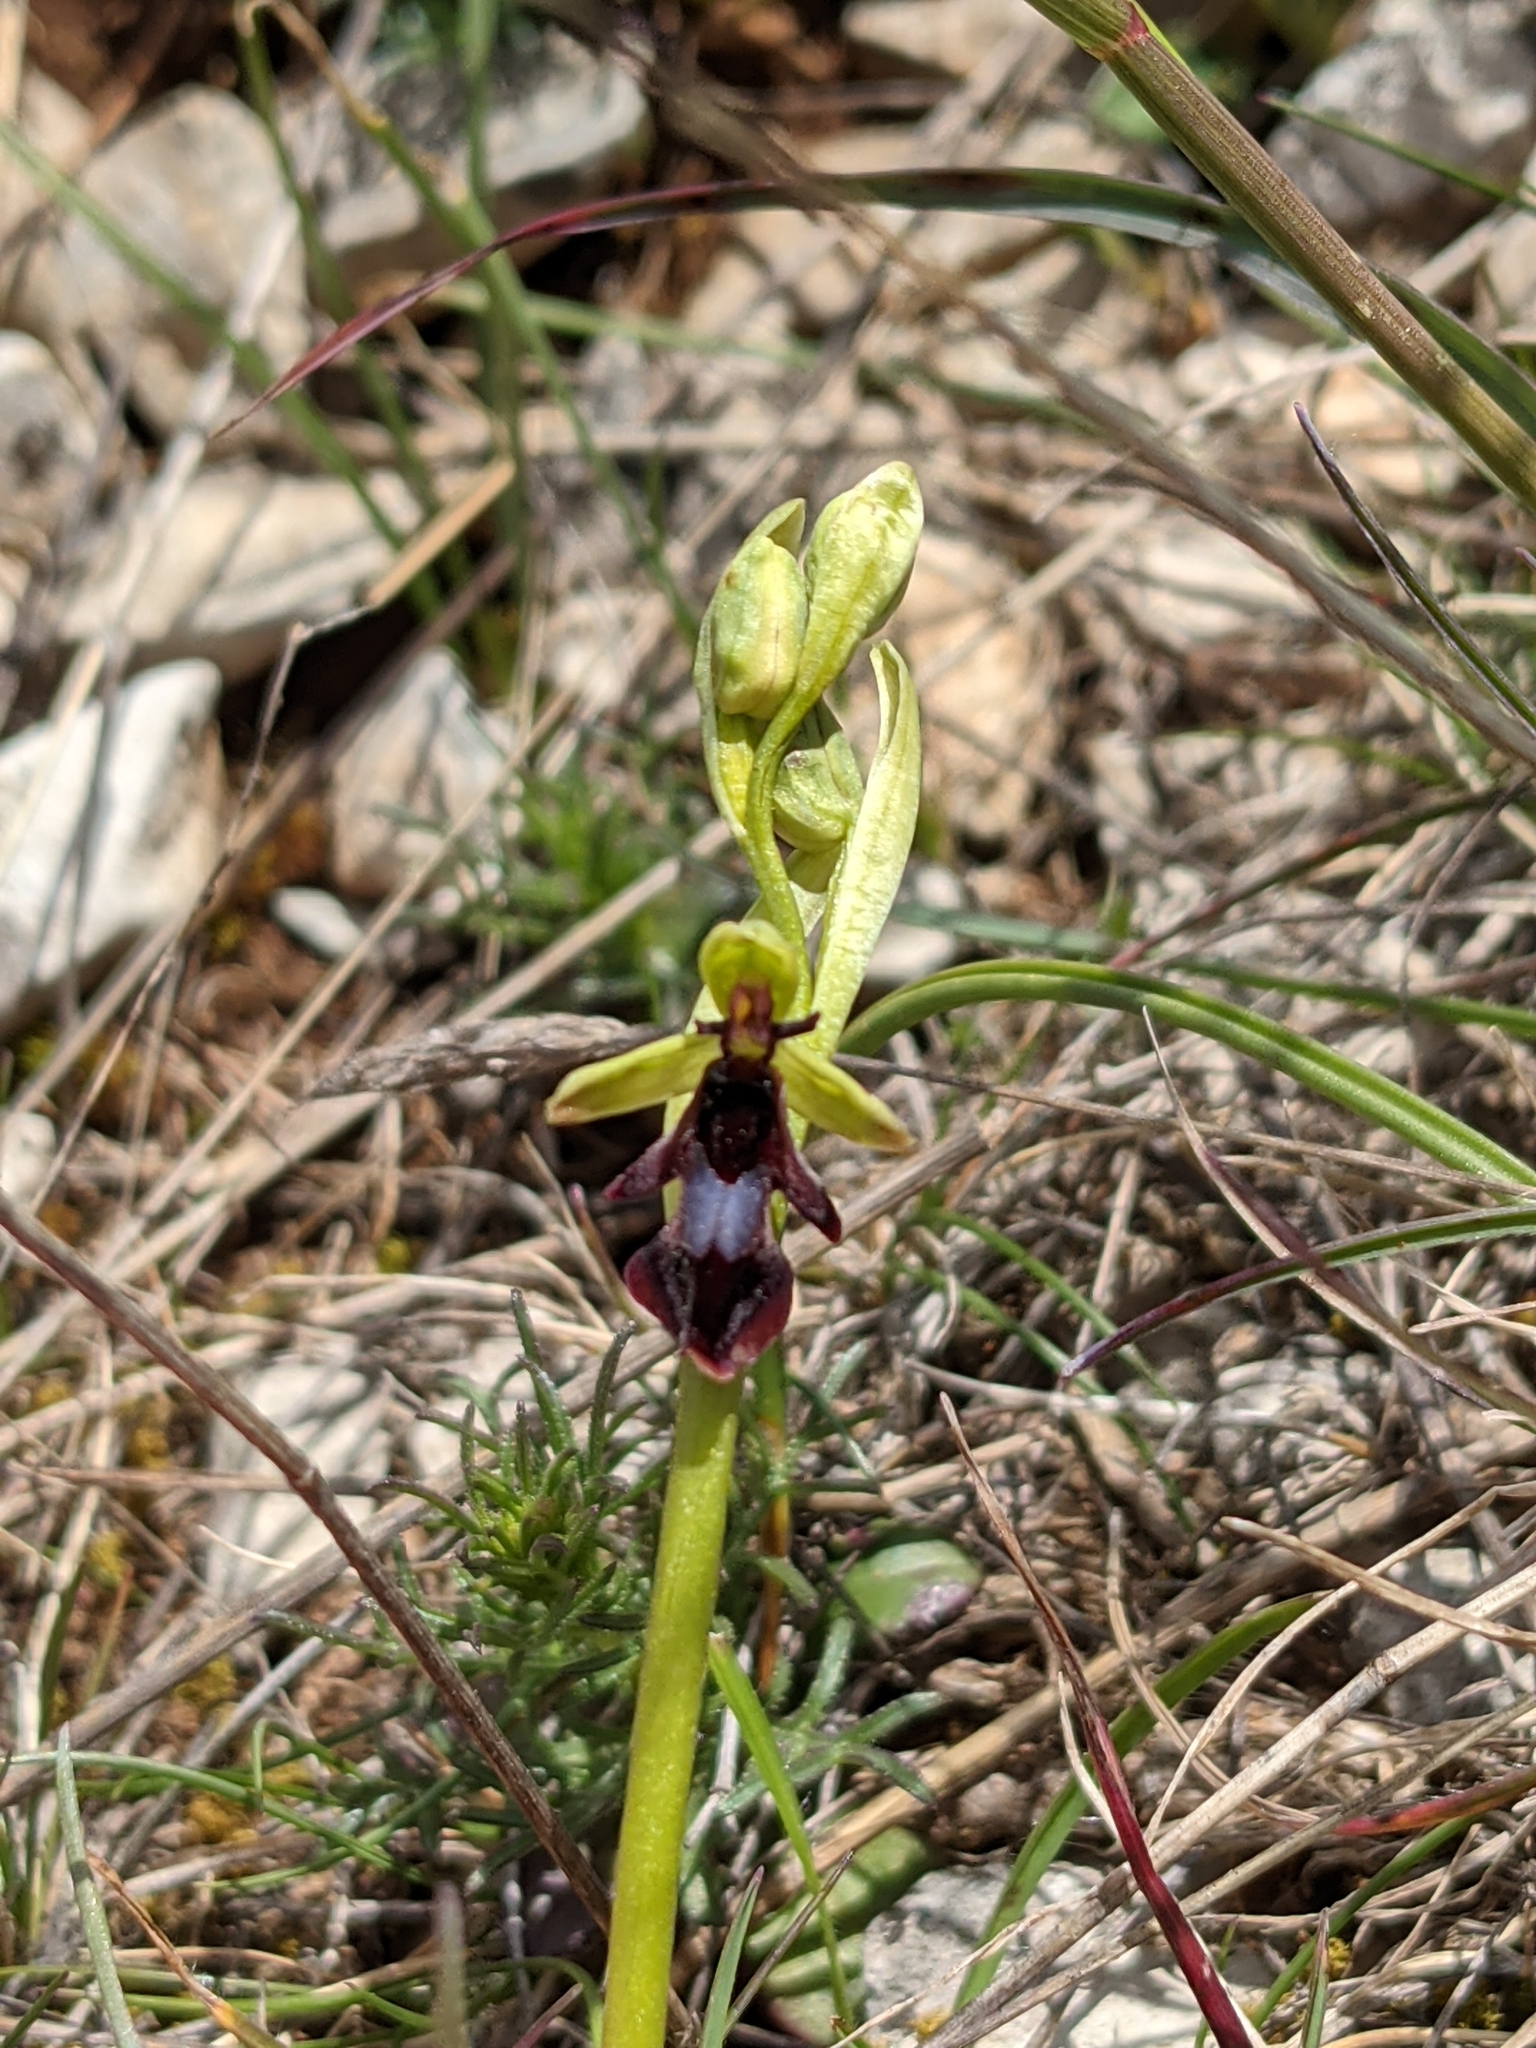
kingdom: Plantae
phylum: Tracheophyta
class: Liliopsida
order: Asparagales
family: Orchidaceae
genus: Ophrys
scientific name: Ophrys insectifera
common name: Fly orchid
